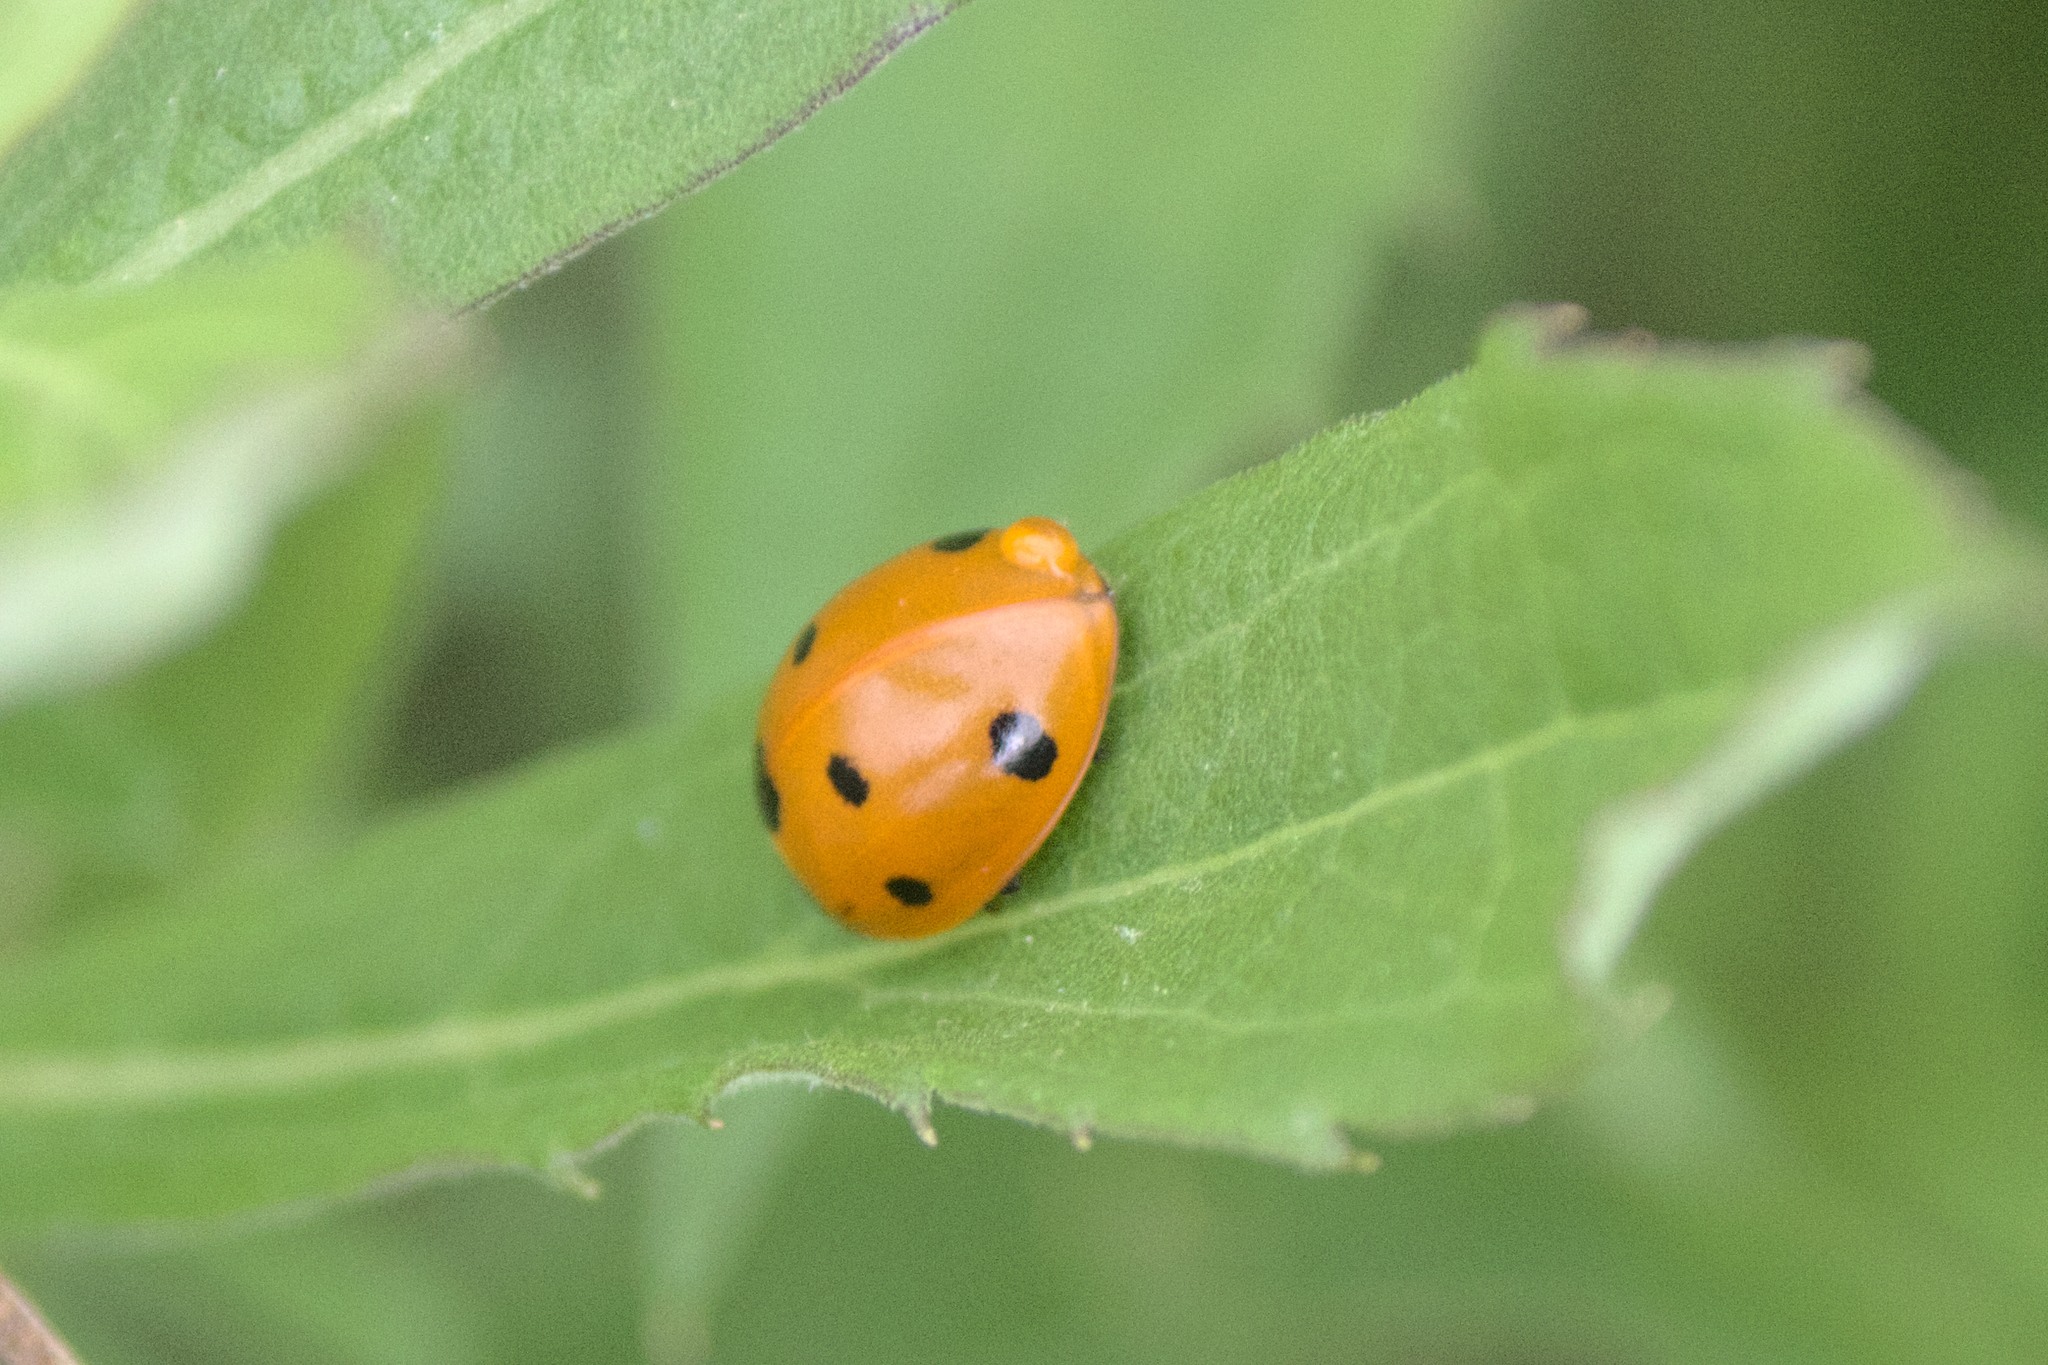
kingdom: Animalia
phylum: Arthropoda
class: Insecta
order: Coleoptera
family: Coccinellidae
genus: Coccinella
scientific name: Coccinella septempunctata
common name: Sevenspotted lady beetle
